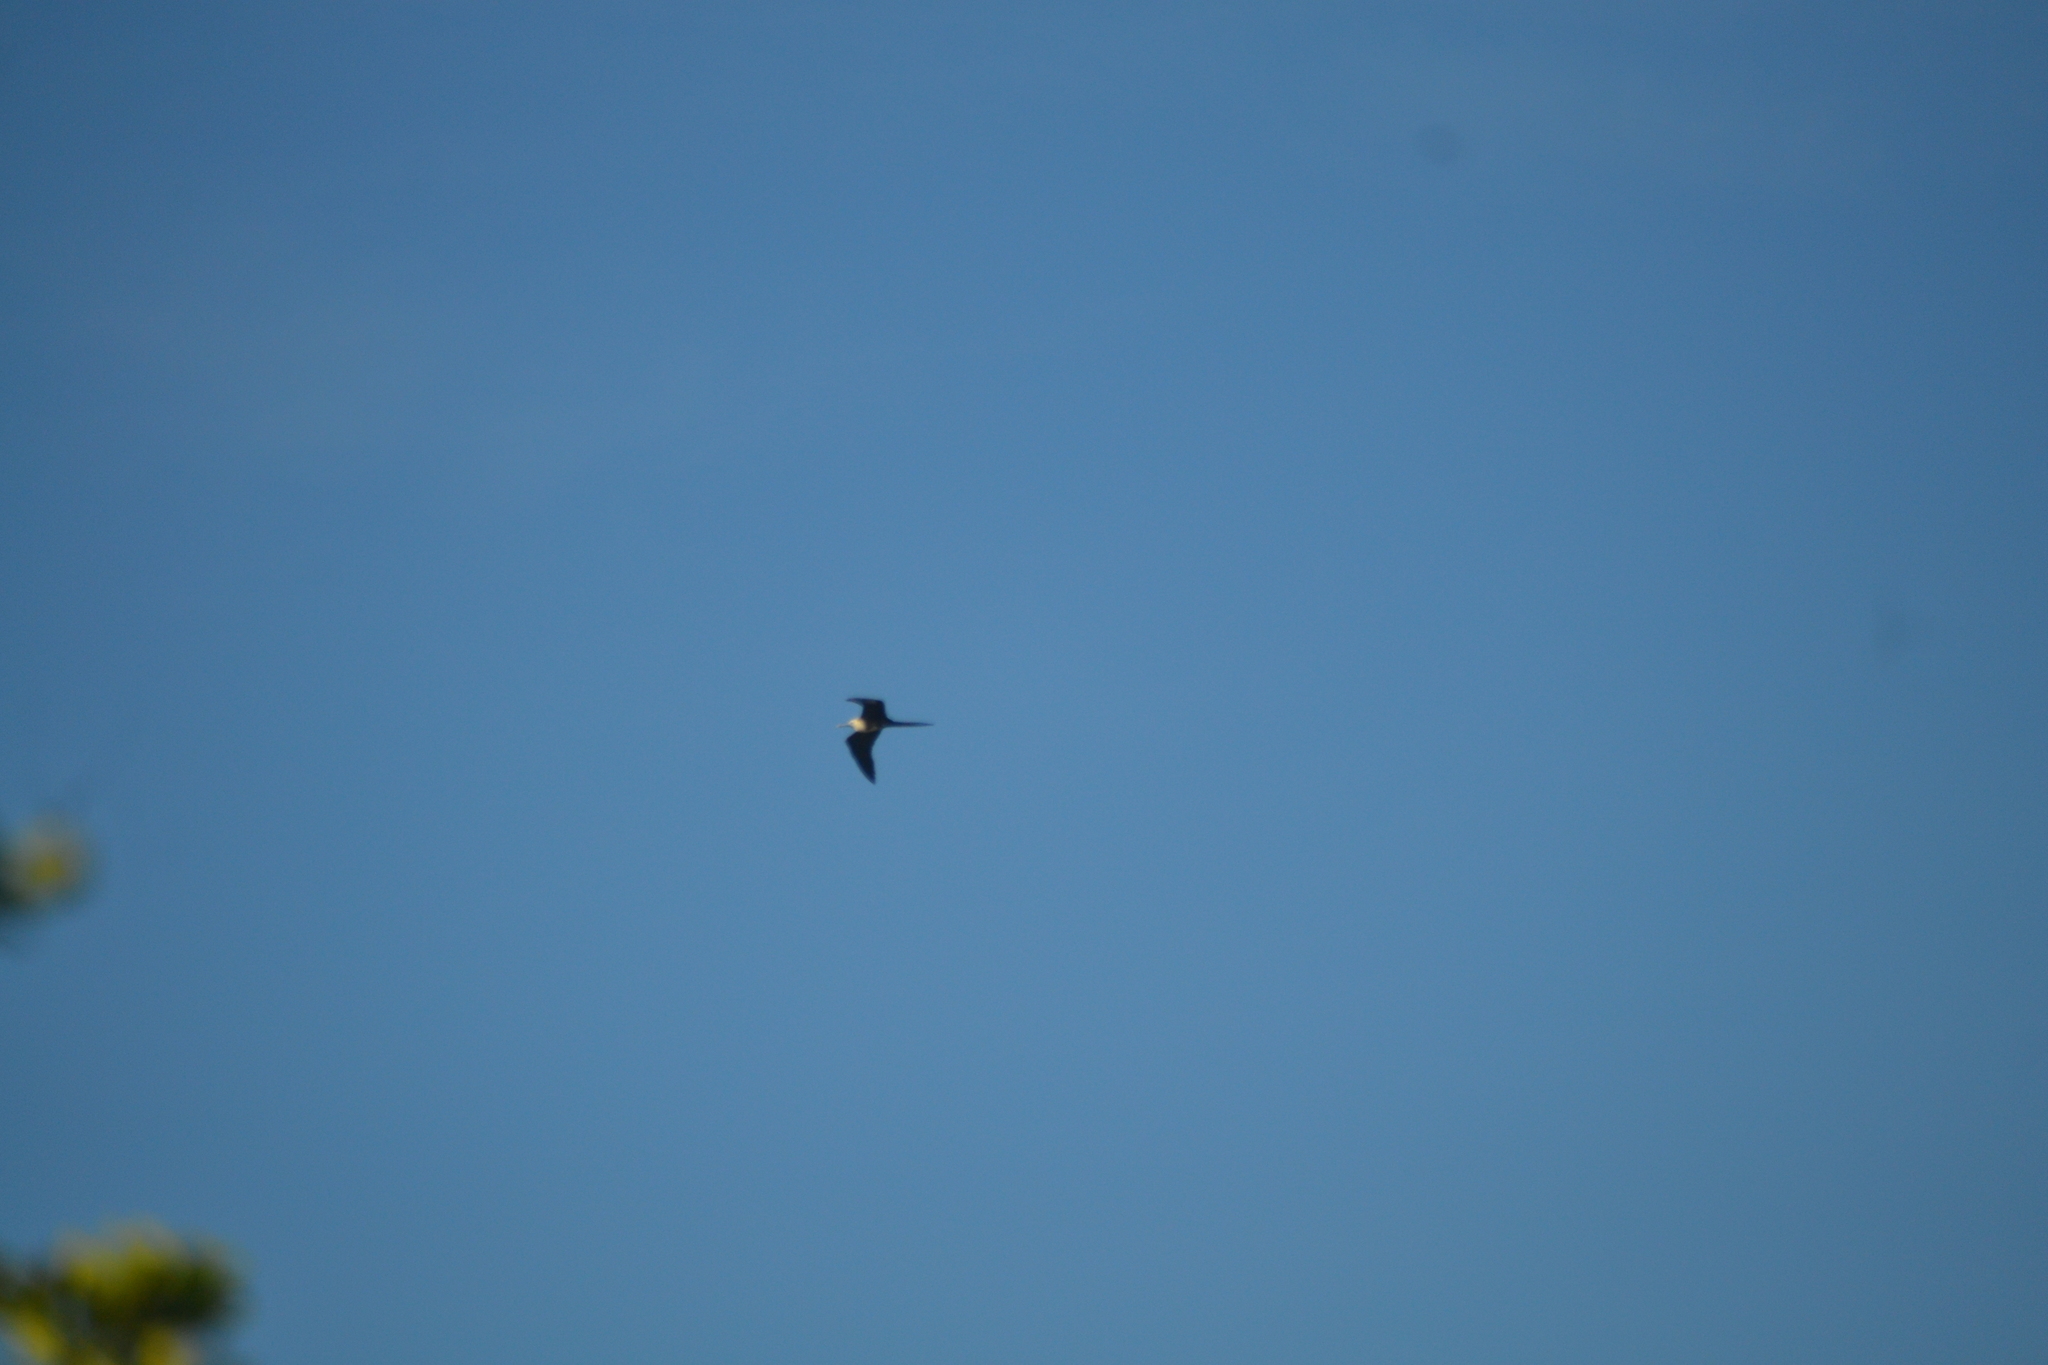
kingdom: Animalia
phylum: Chordata
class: Aves
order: Suliformes
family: Fregatidae
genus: Fregata
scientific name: Fregata magnificens
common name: Magnificent frigatebird
